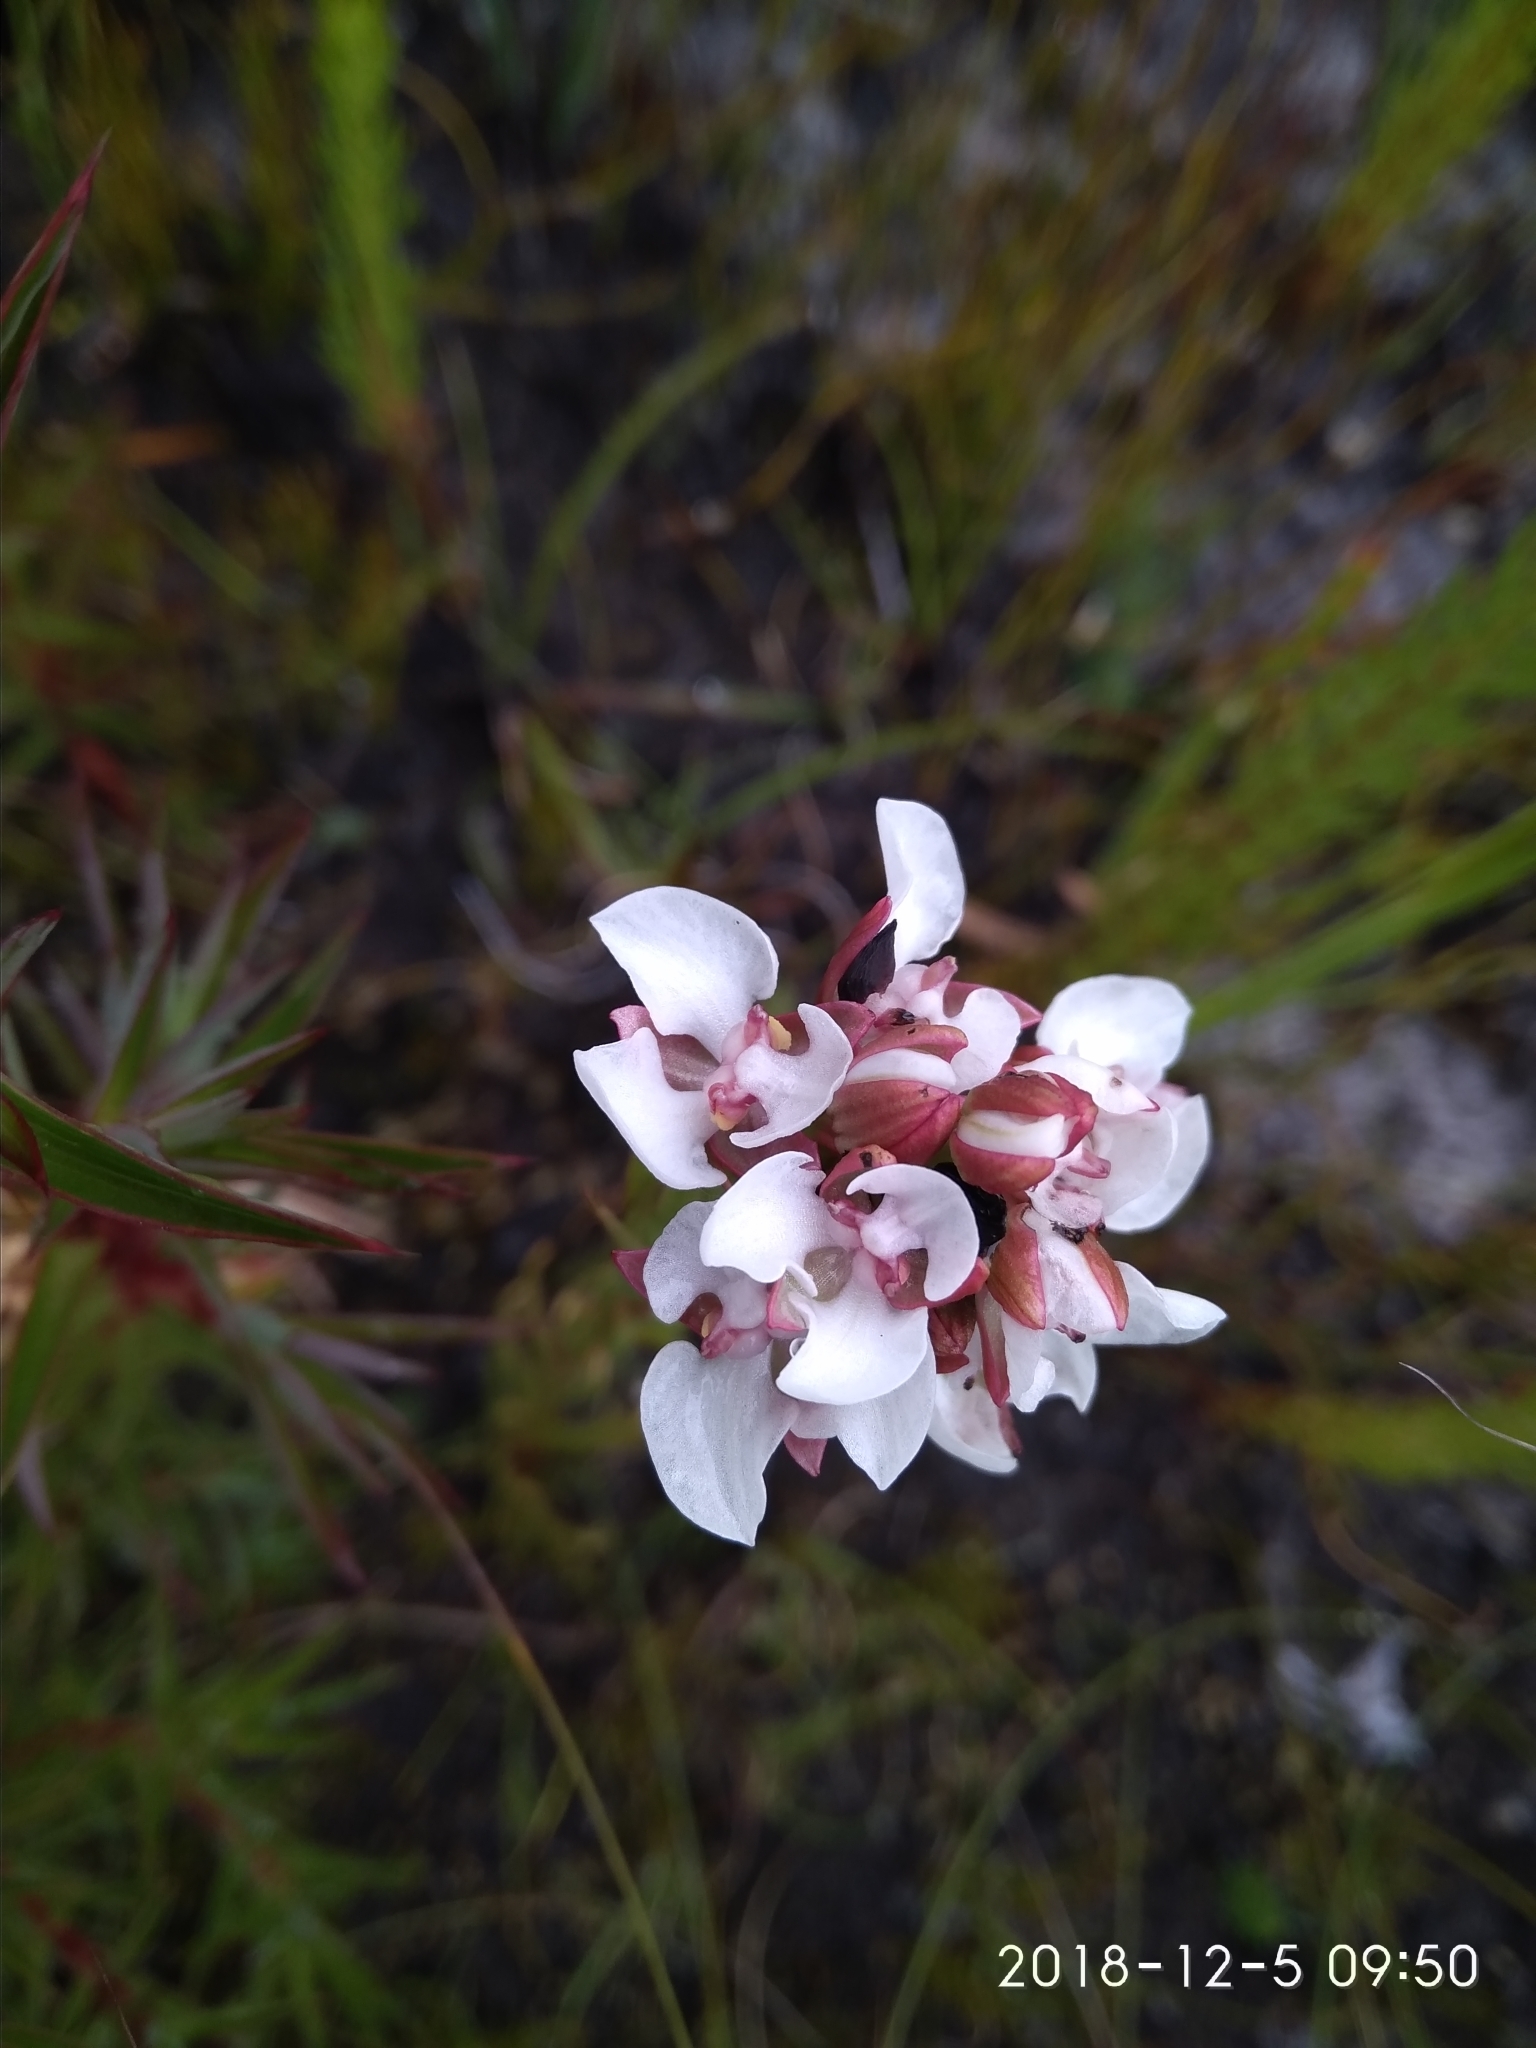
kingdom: Plantae
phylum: Tracheophyta
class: Liliopsida
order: Asparagales
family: Orchidaceae
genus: Ceratandra
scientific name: Ceratandra globosa
